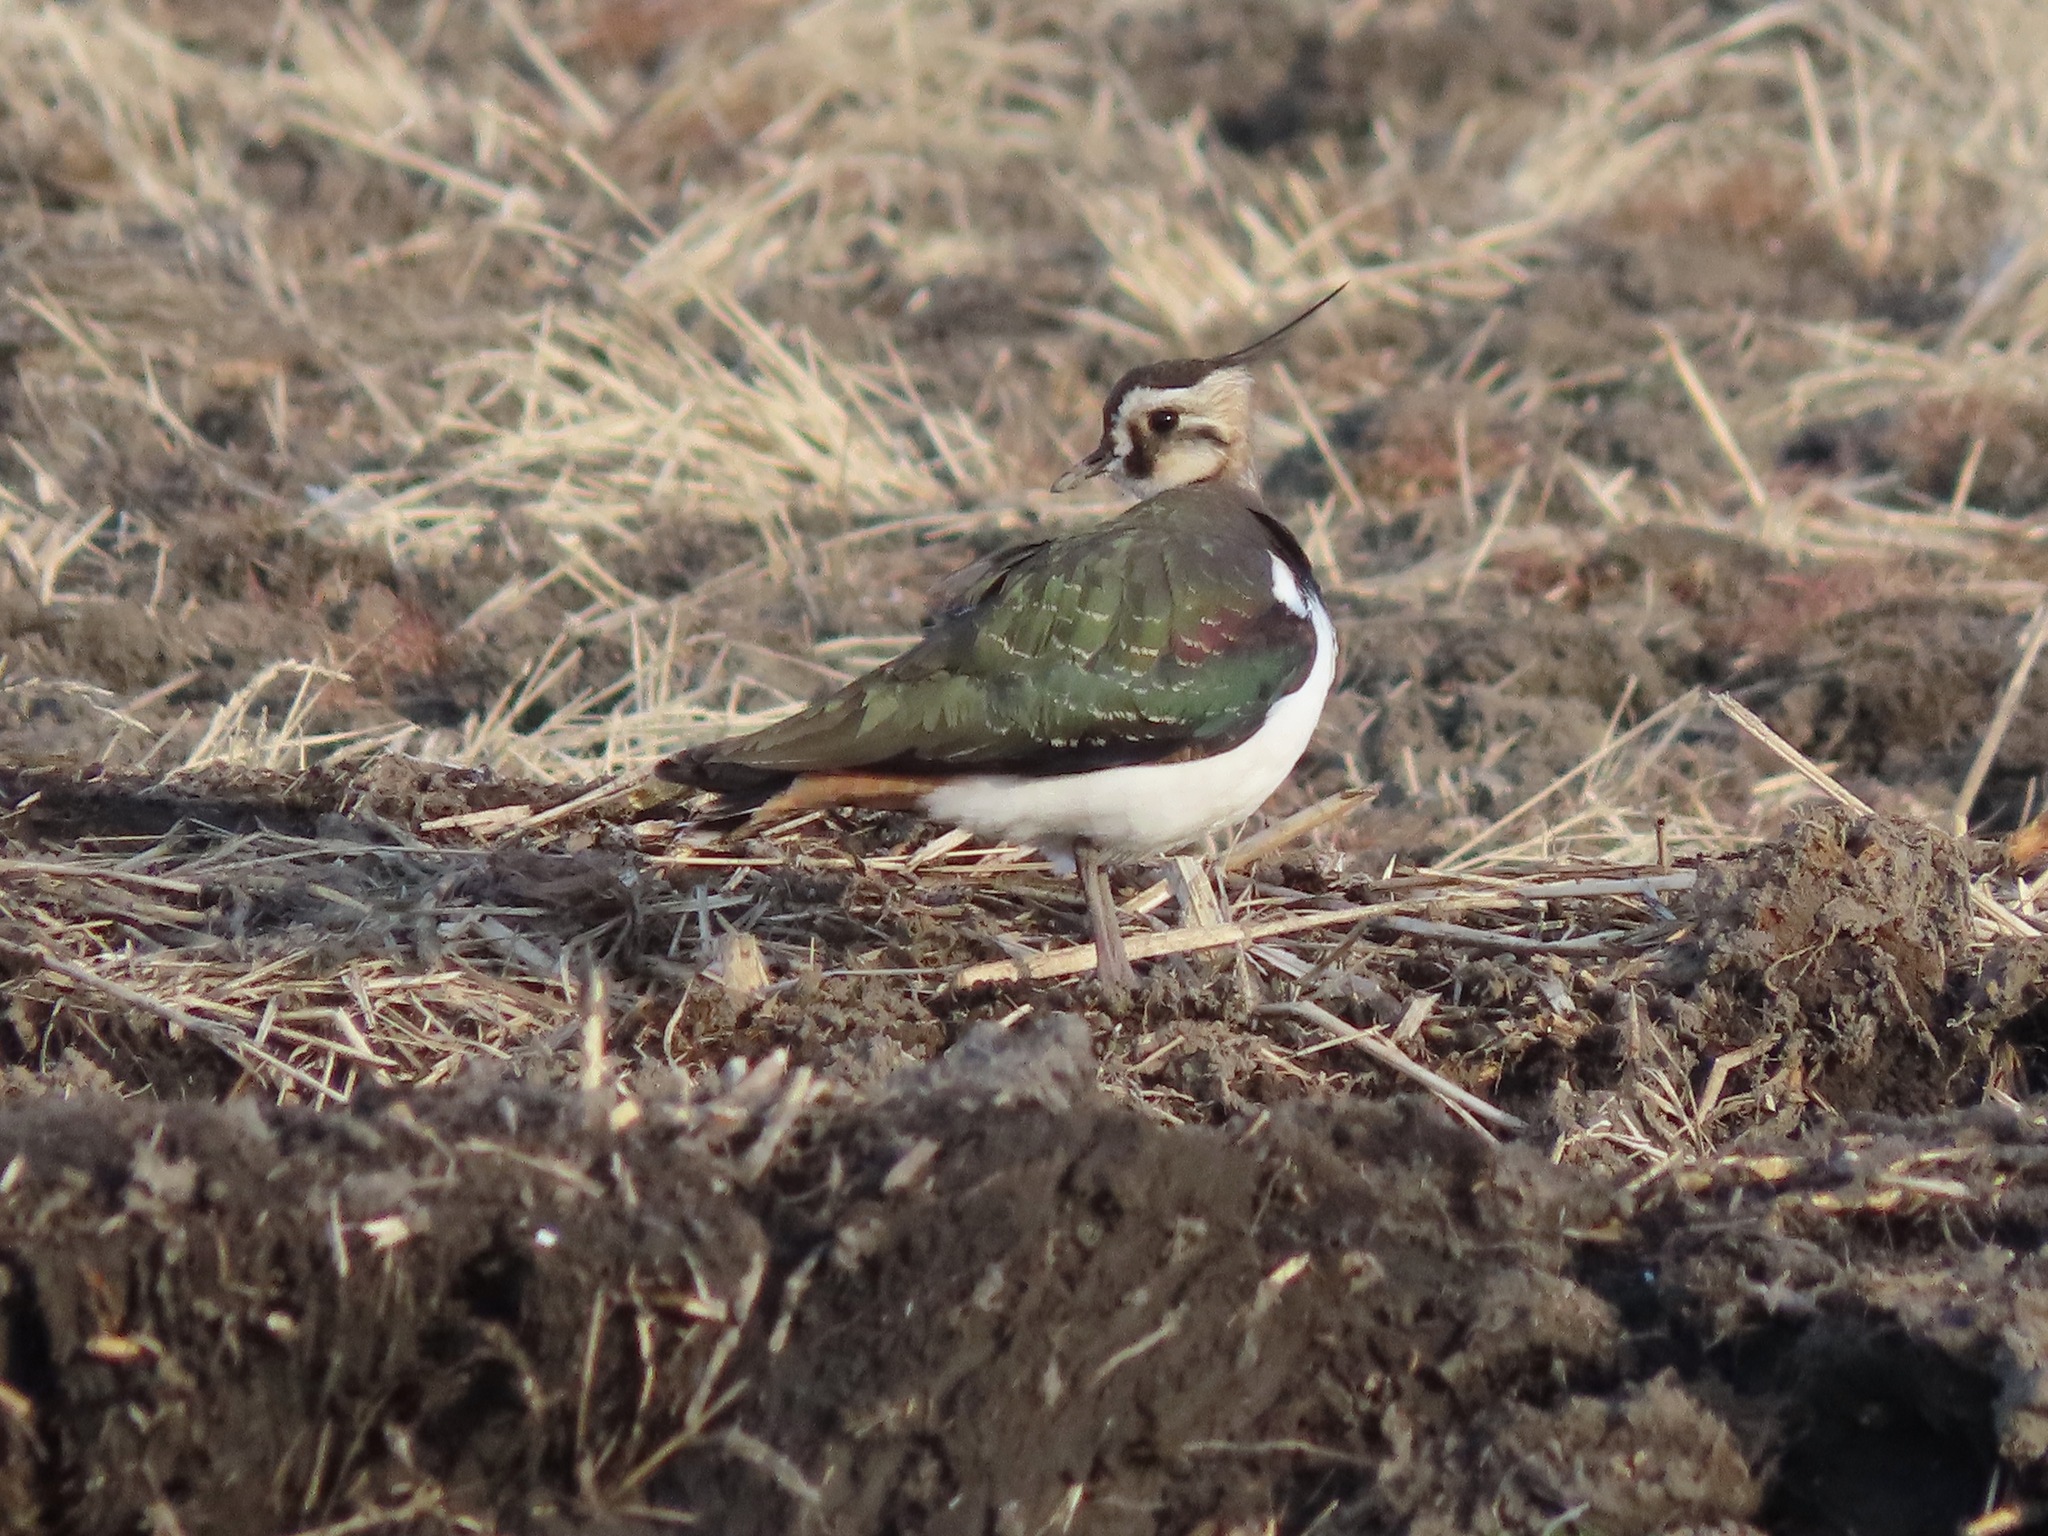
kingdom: Animalia
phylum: Chordata
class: Aves
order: Charadriiformes
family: Charadriidae
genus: Vanellus
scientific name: Vanellus vanellus
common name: Northern lapwing
